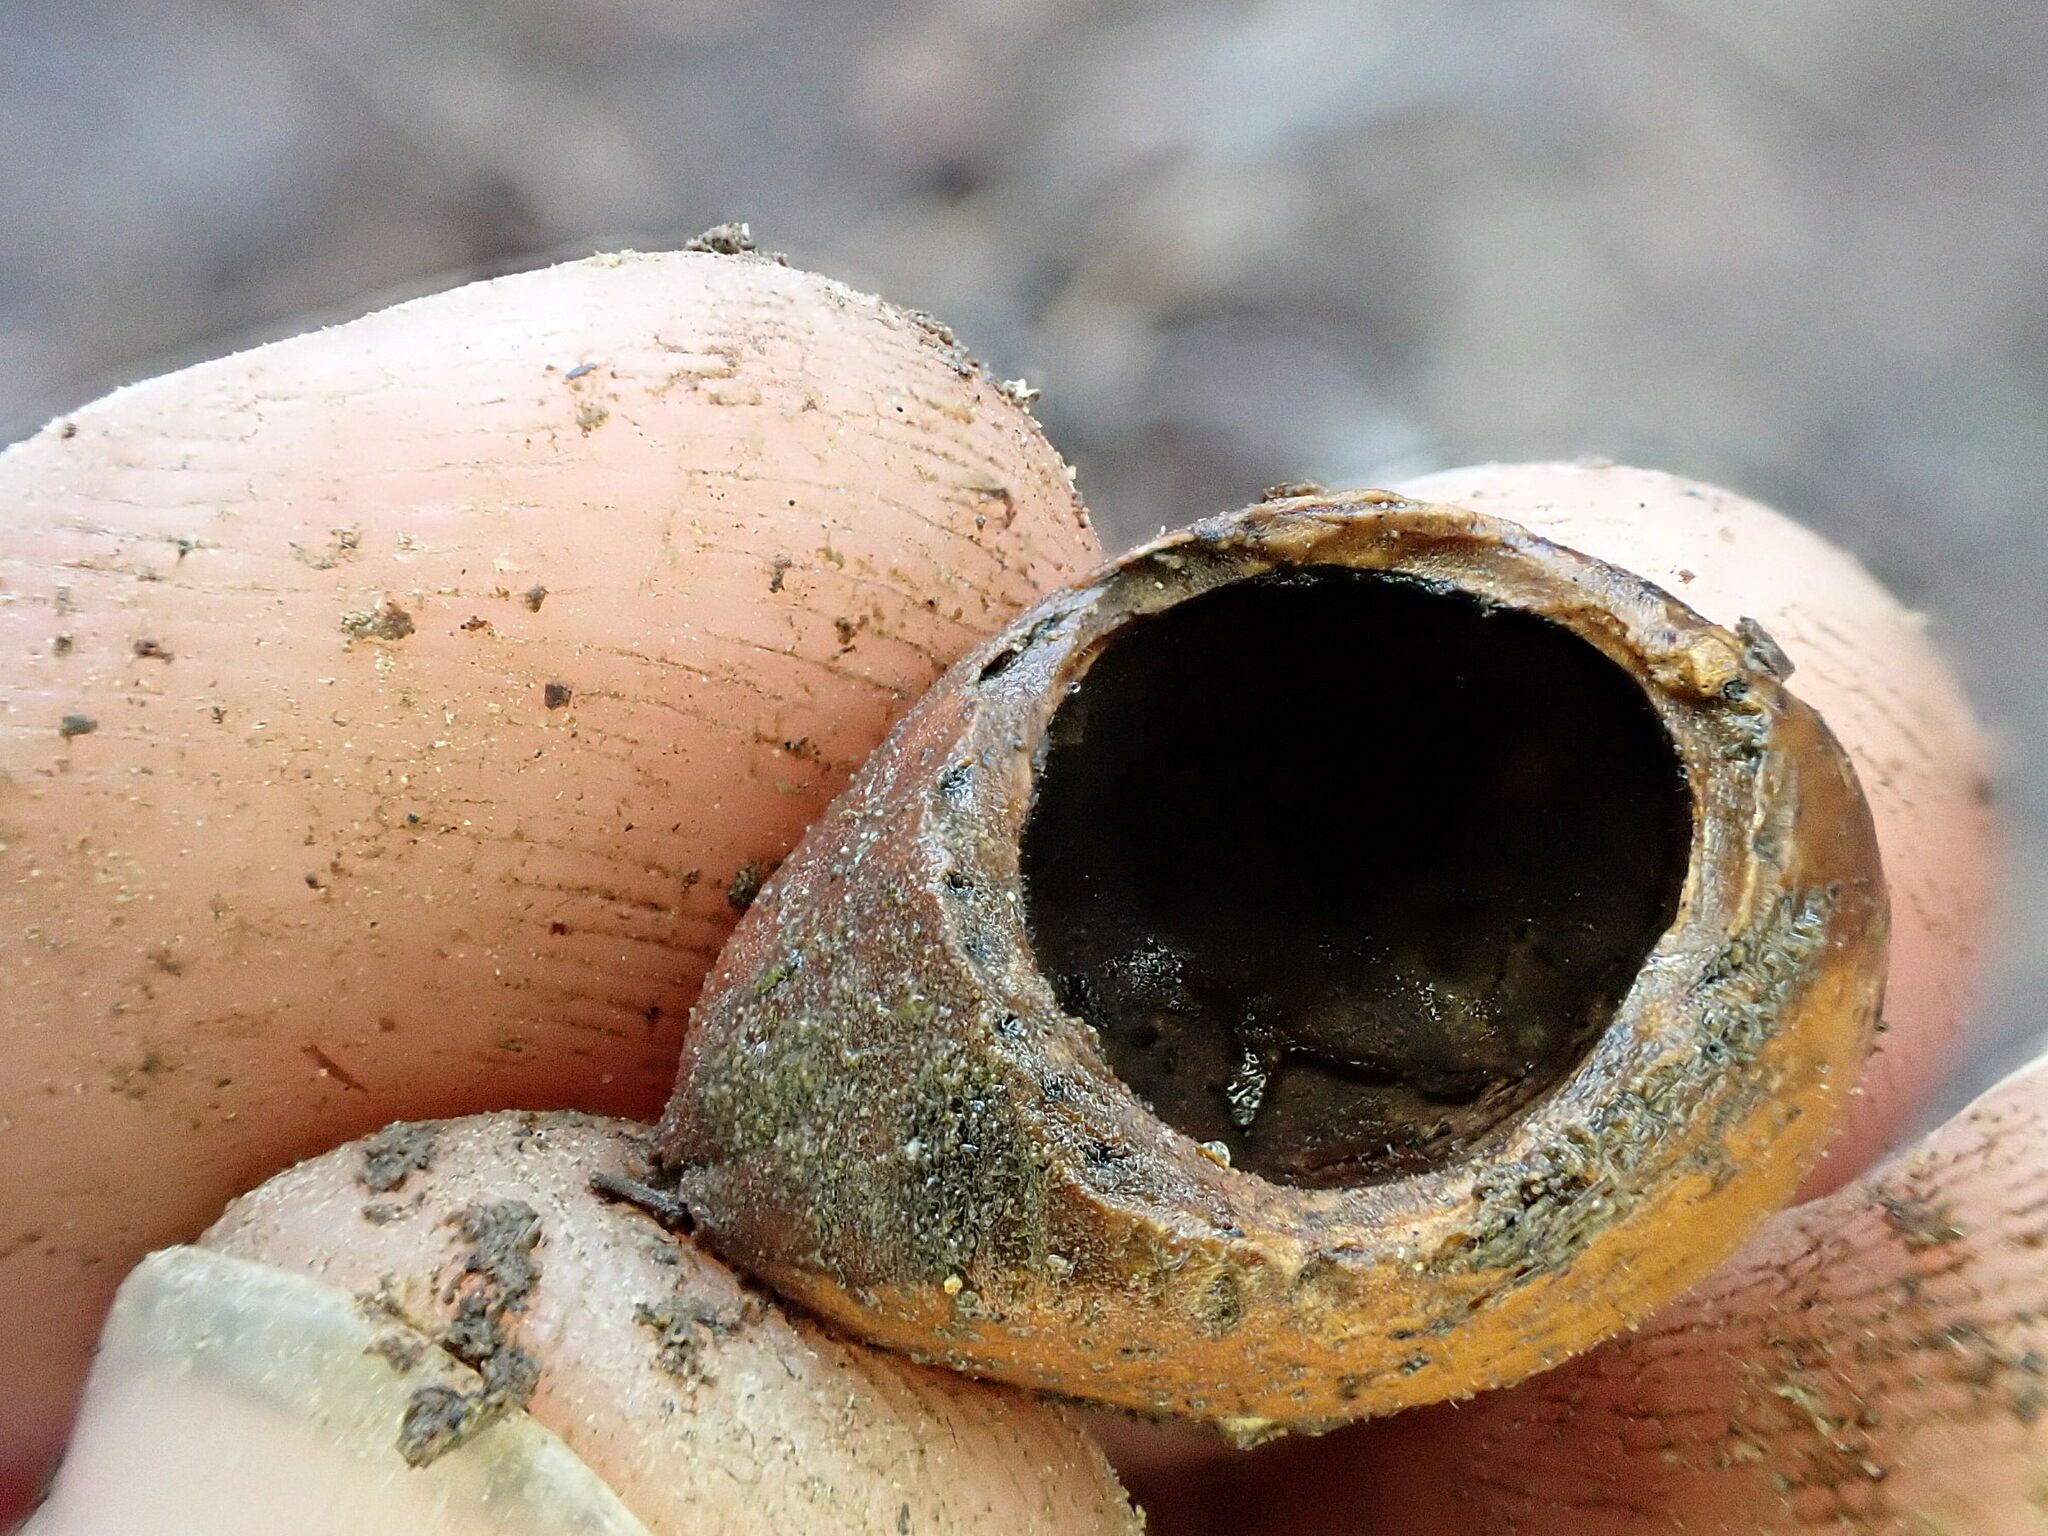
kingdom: Animalia
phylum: Chordata
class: Mammalia
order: Rodentia
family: Gliridae
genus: Muscardinus
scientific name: Muscardinus avellanarius
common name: Hazel dormouse
